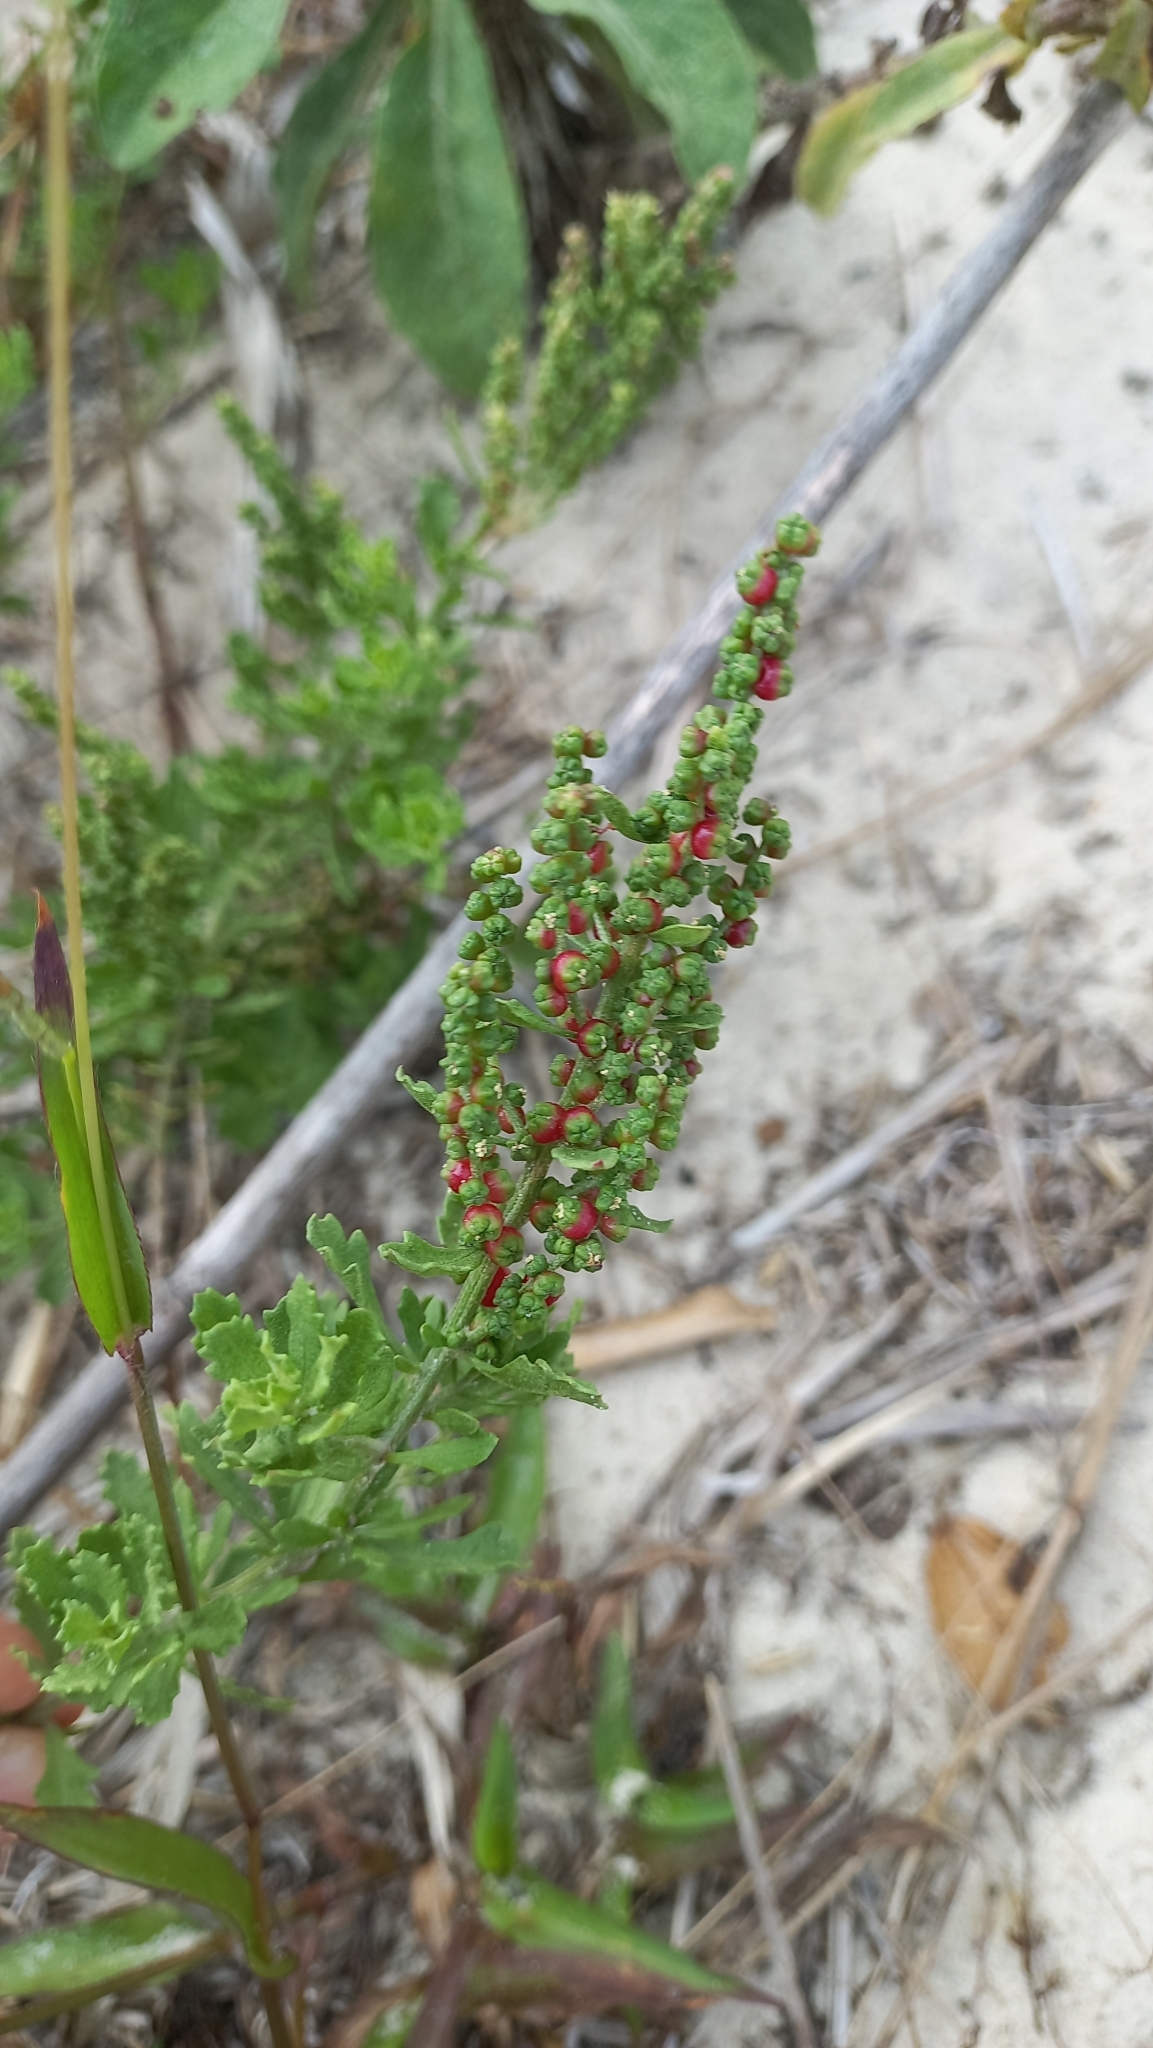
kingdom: Plantae
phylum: Tracheophyta
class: Magnoliopsida
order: Caryophyllales
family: Amaranthaceae
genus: Dysphania
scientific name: Dysphania retusa
